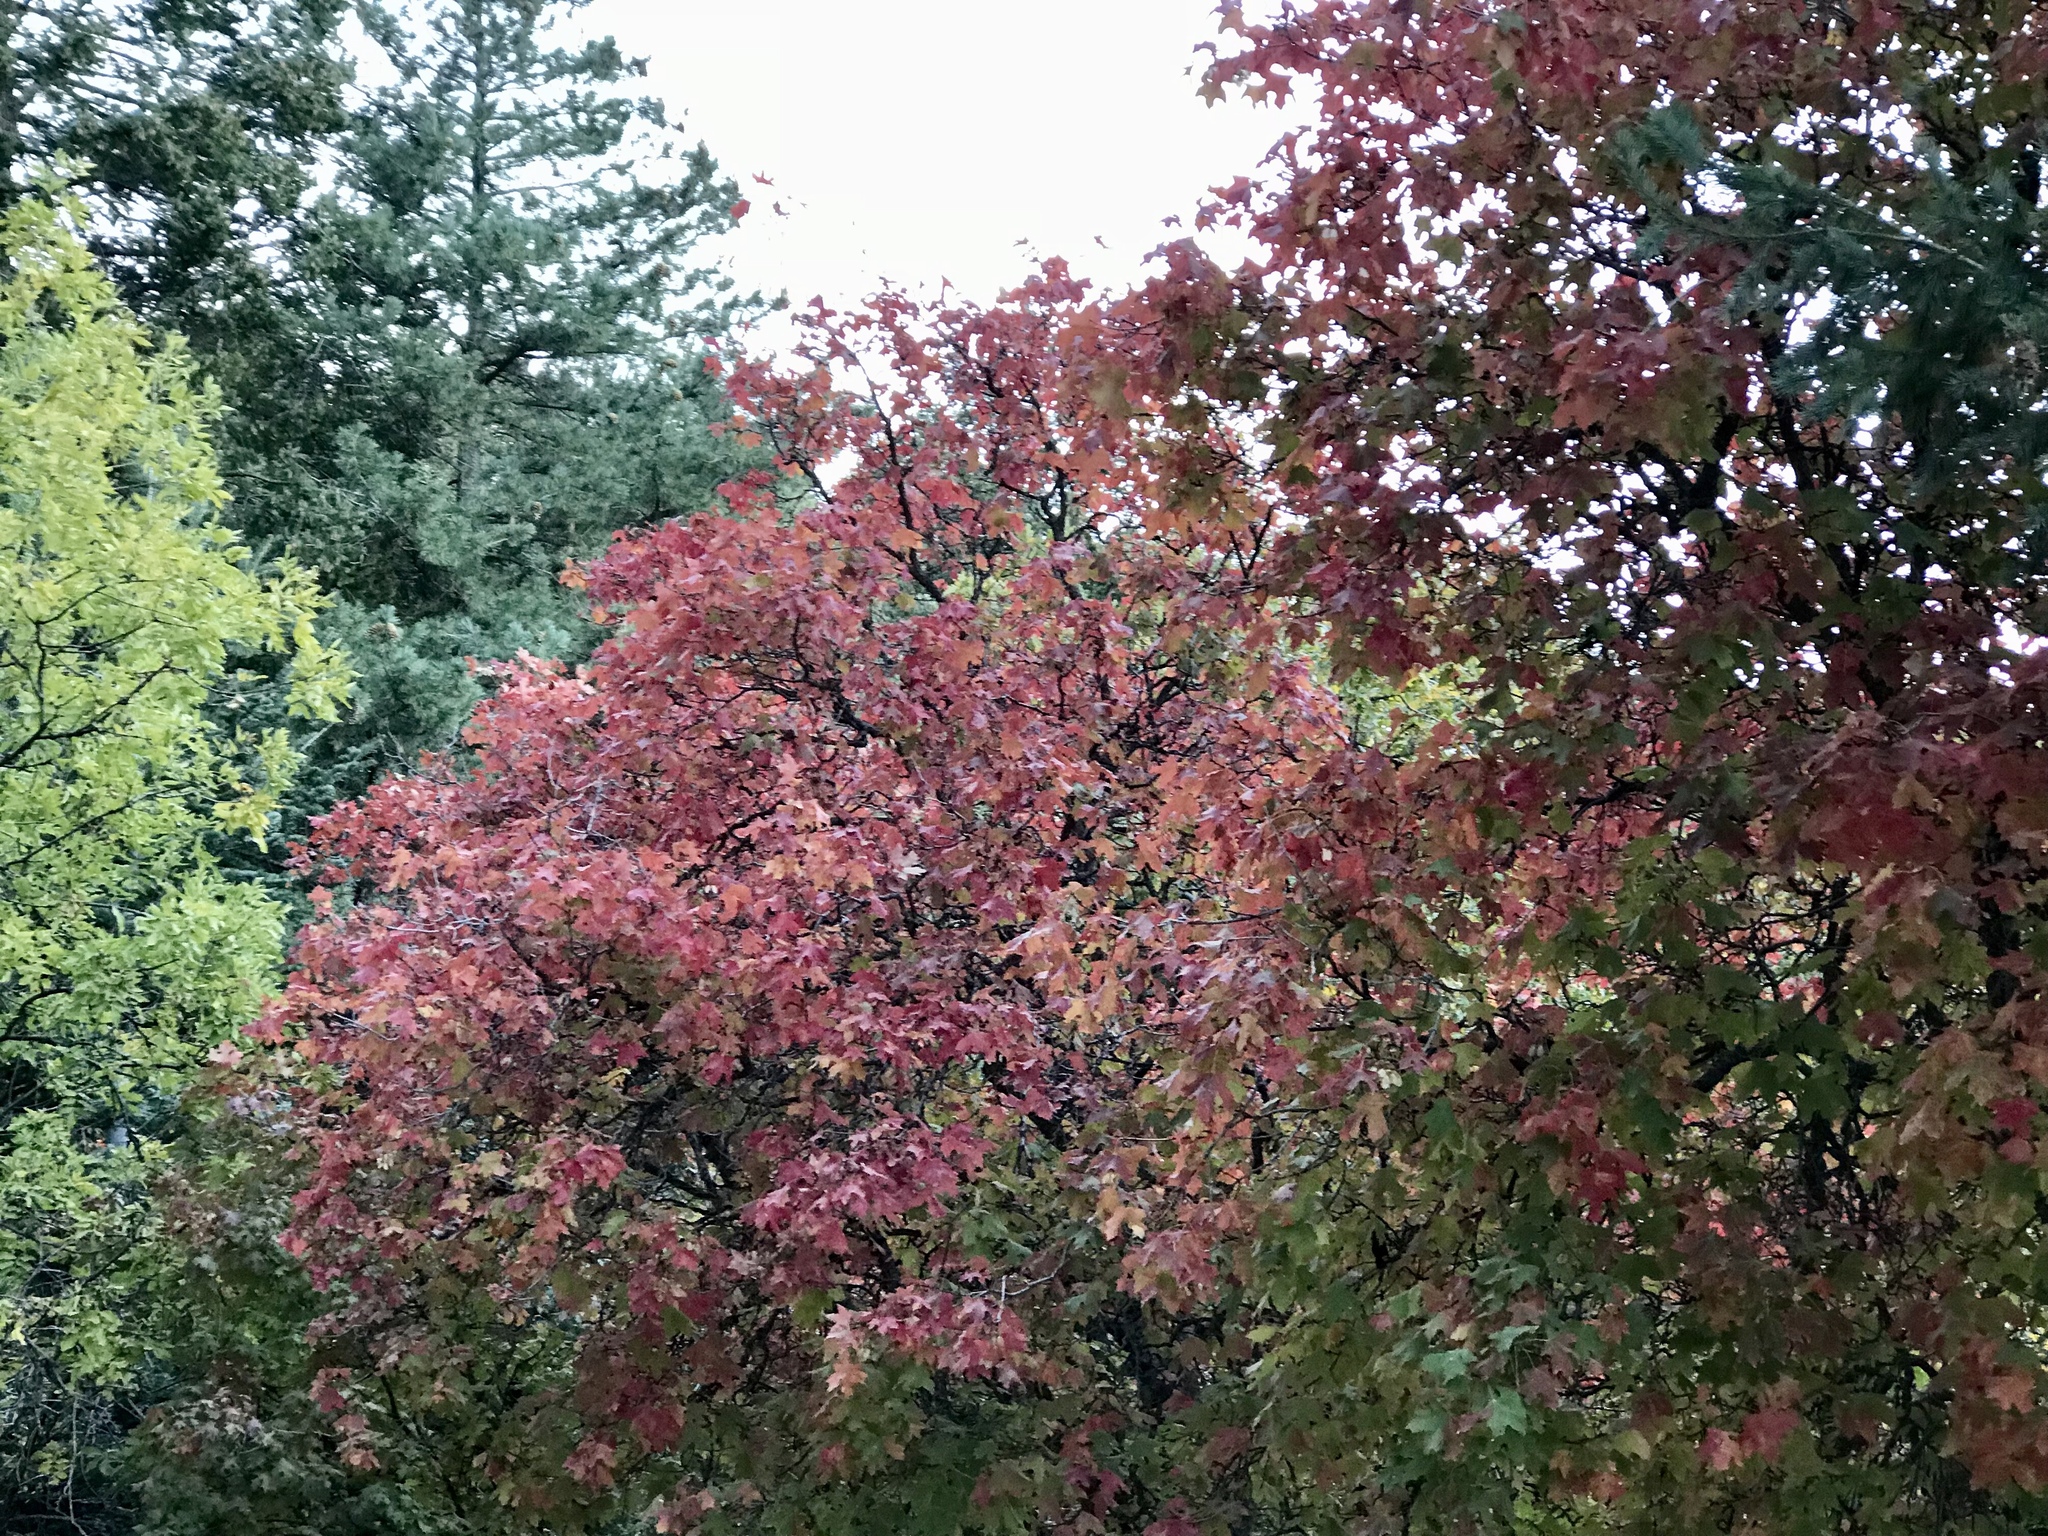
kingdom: Plantae
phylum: Tracheophyta
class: Magnoliopsida
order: Sapindales
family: Sapindaceae
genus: Acer
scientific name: Acer grandidentatum
